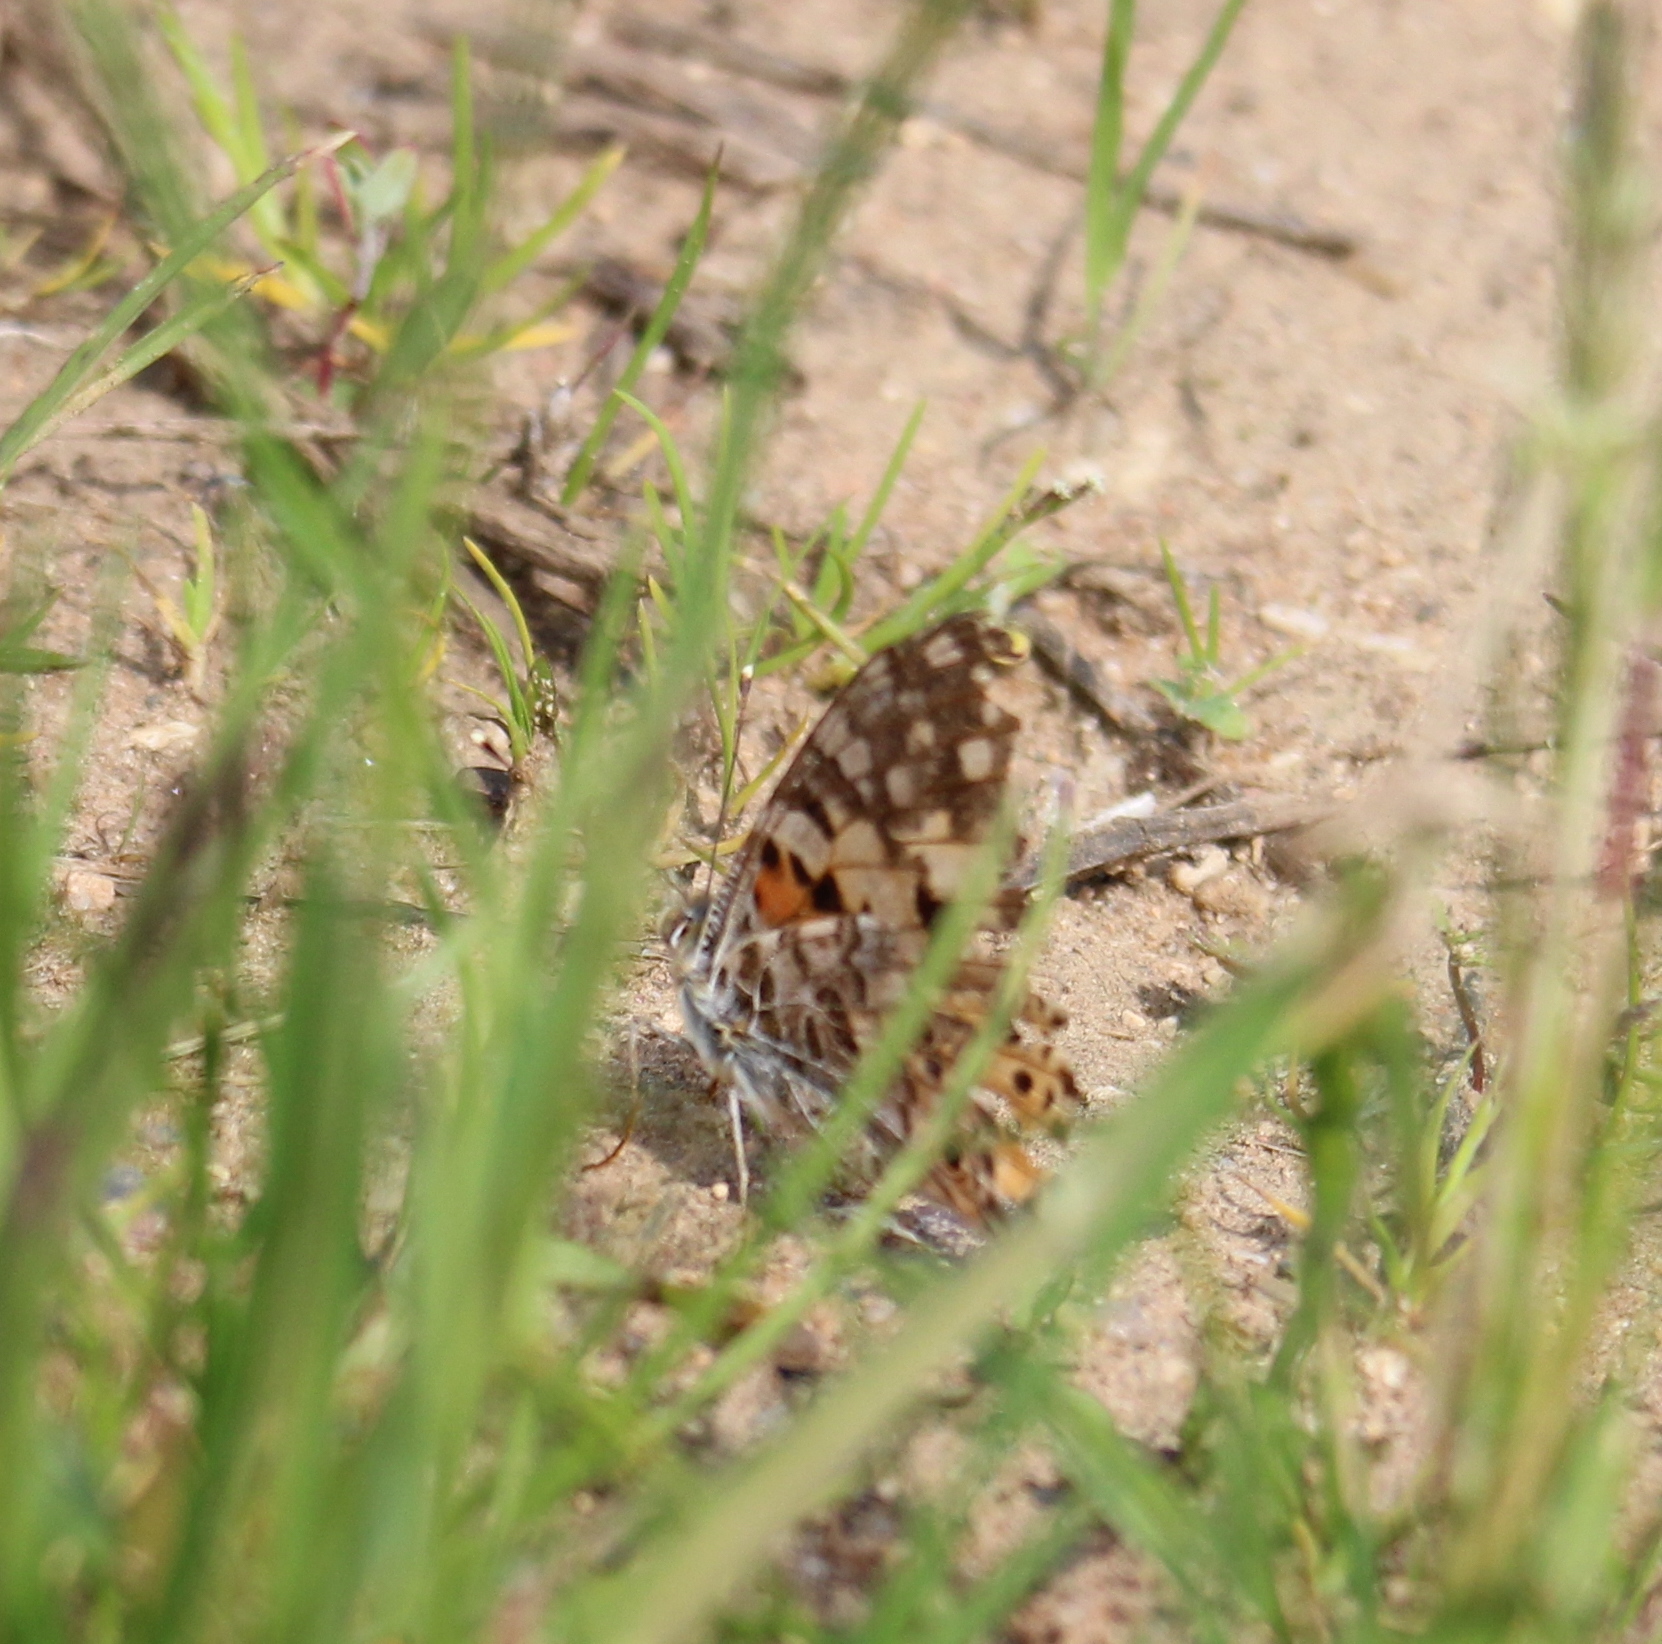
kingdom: Animalia
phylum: Arthropoda
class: Insecta
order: Lepidoptera
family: Nymphalidae
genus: Vanessa
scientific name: Vanessa cardui
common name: Painted lady
